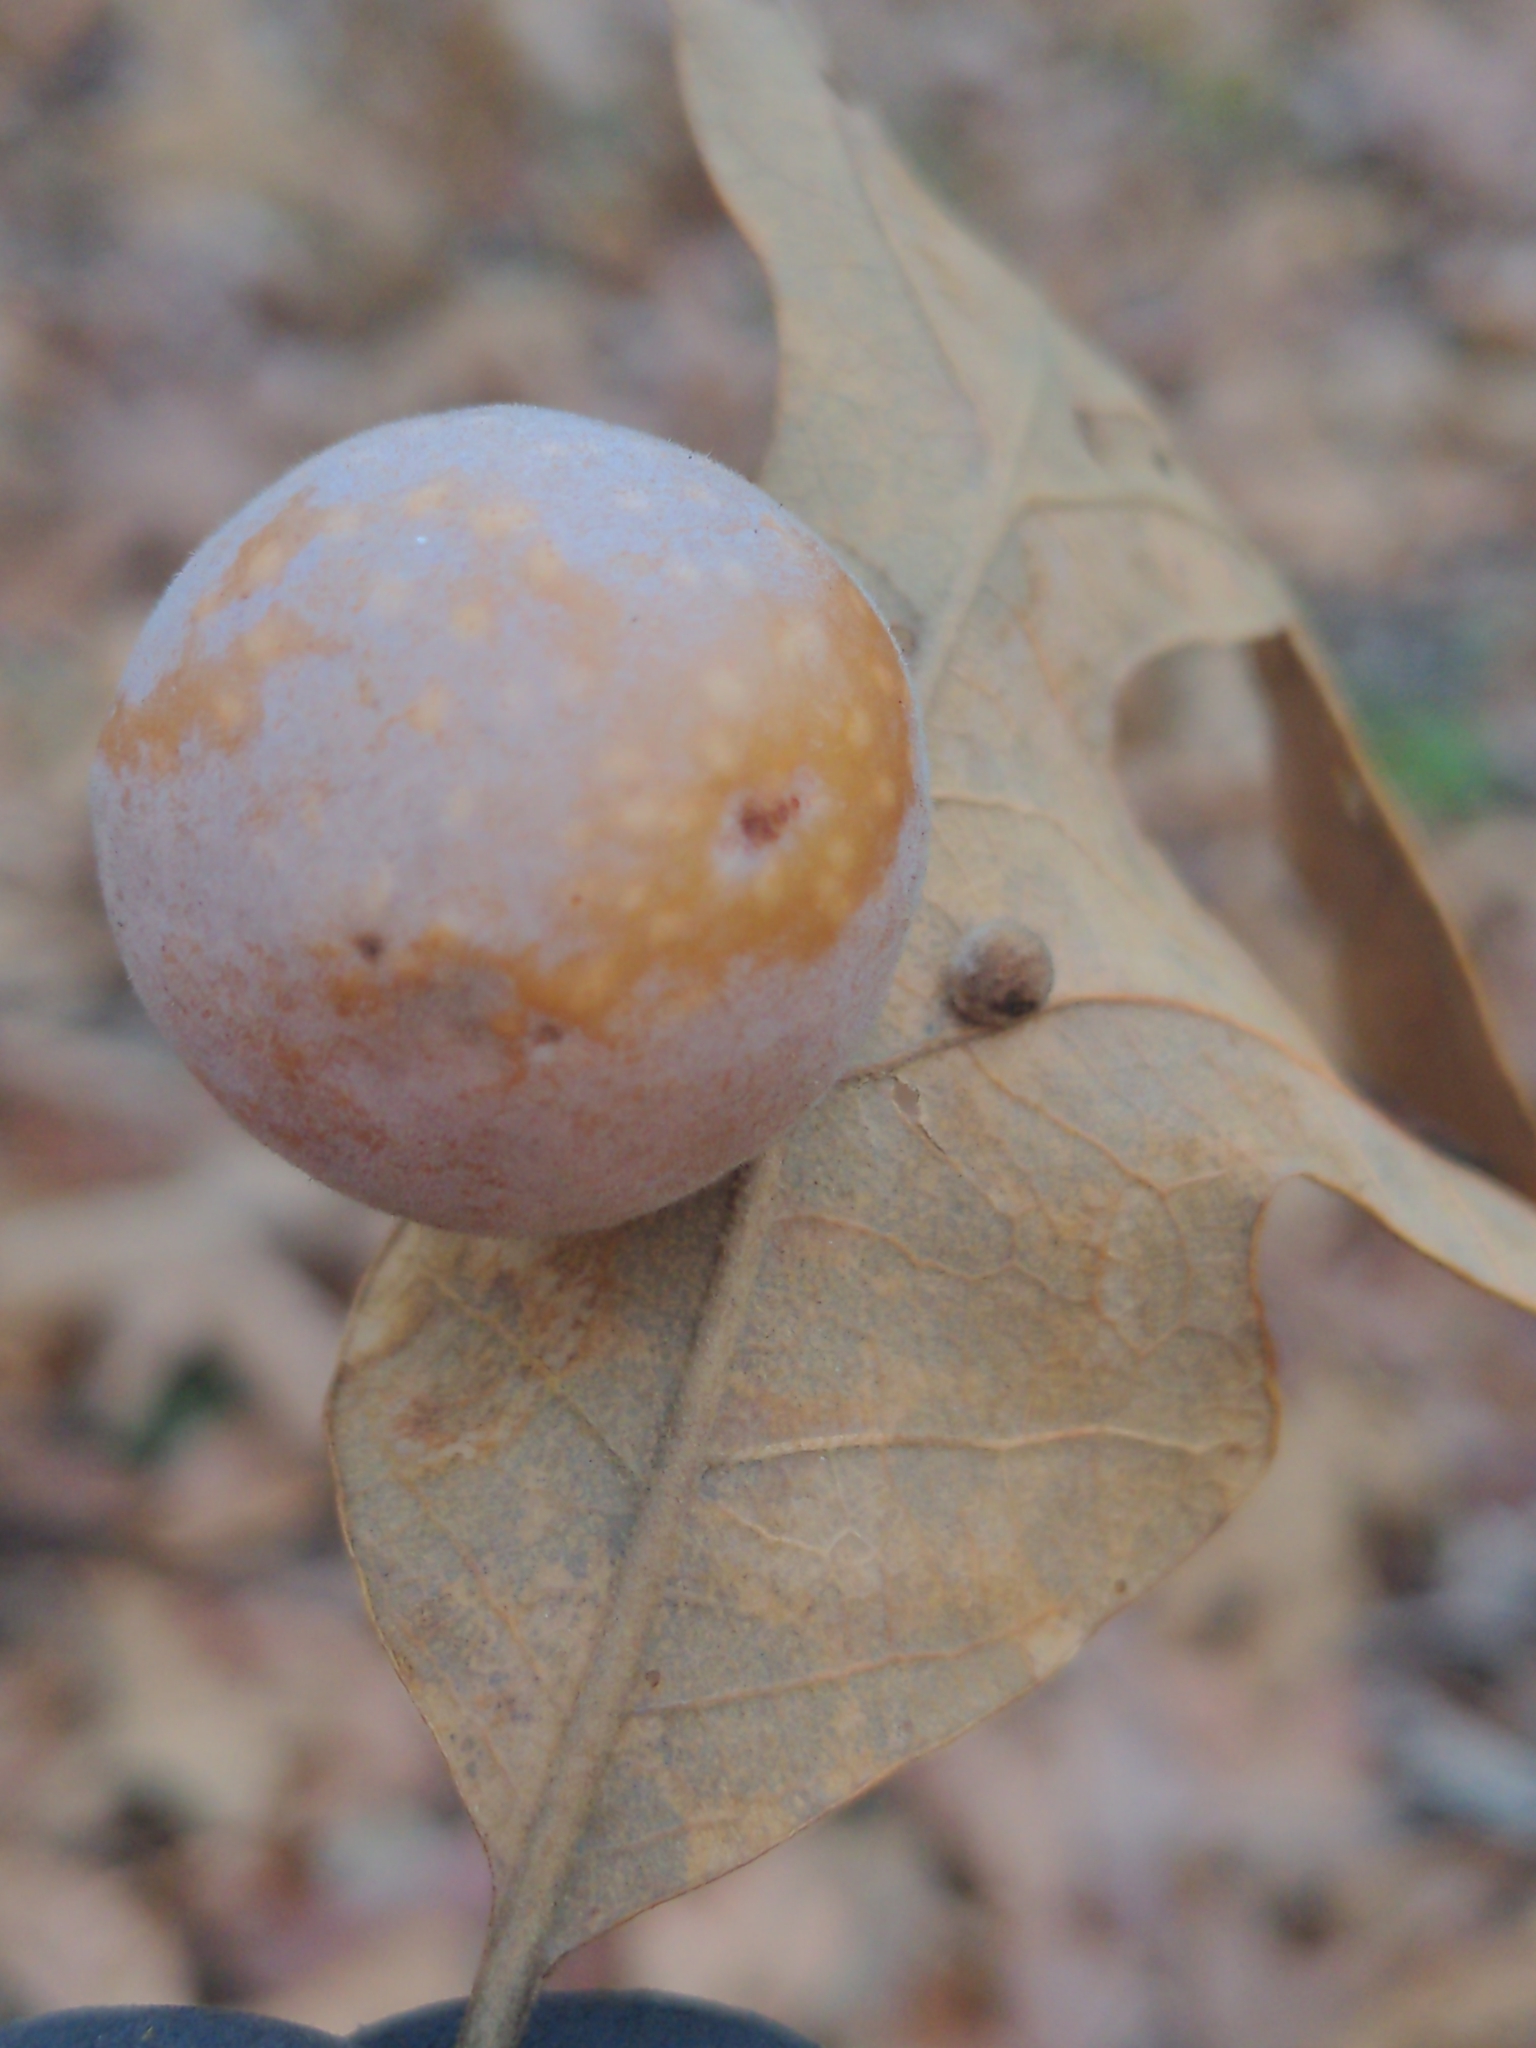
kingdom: Animalia
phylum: Arthropoda
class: Insecta
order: Hymenoptera
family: Cynipidae
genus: Atrusca
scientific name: Atrusca
